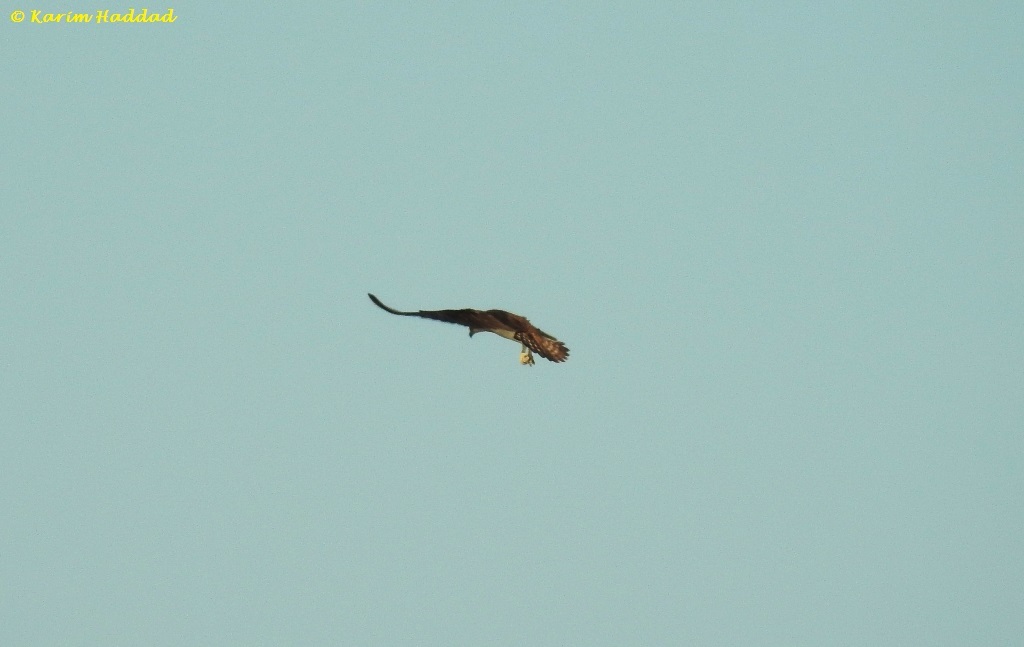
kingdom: Animalia
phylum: Chordata
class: Aves
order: Accipitriformes
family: Pandionidae
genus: Pandion
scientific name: Pandion haliaetus
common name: Osprey
